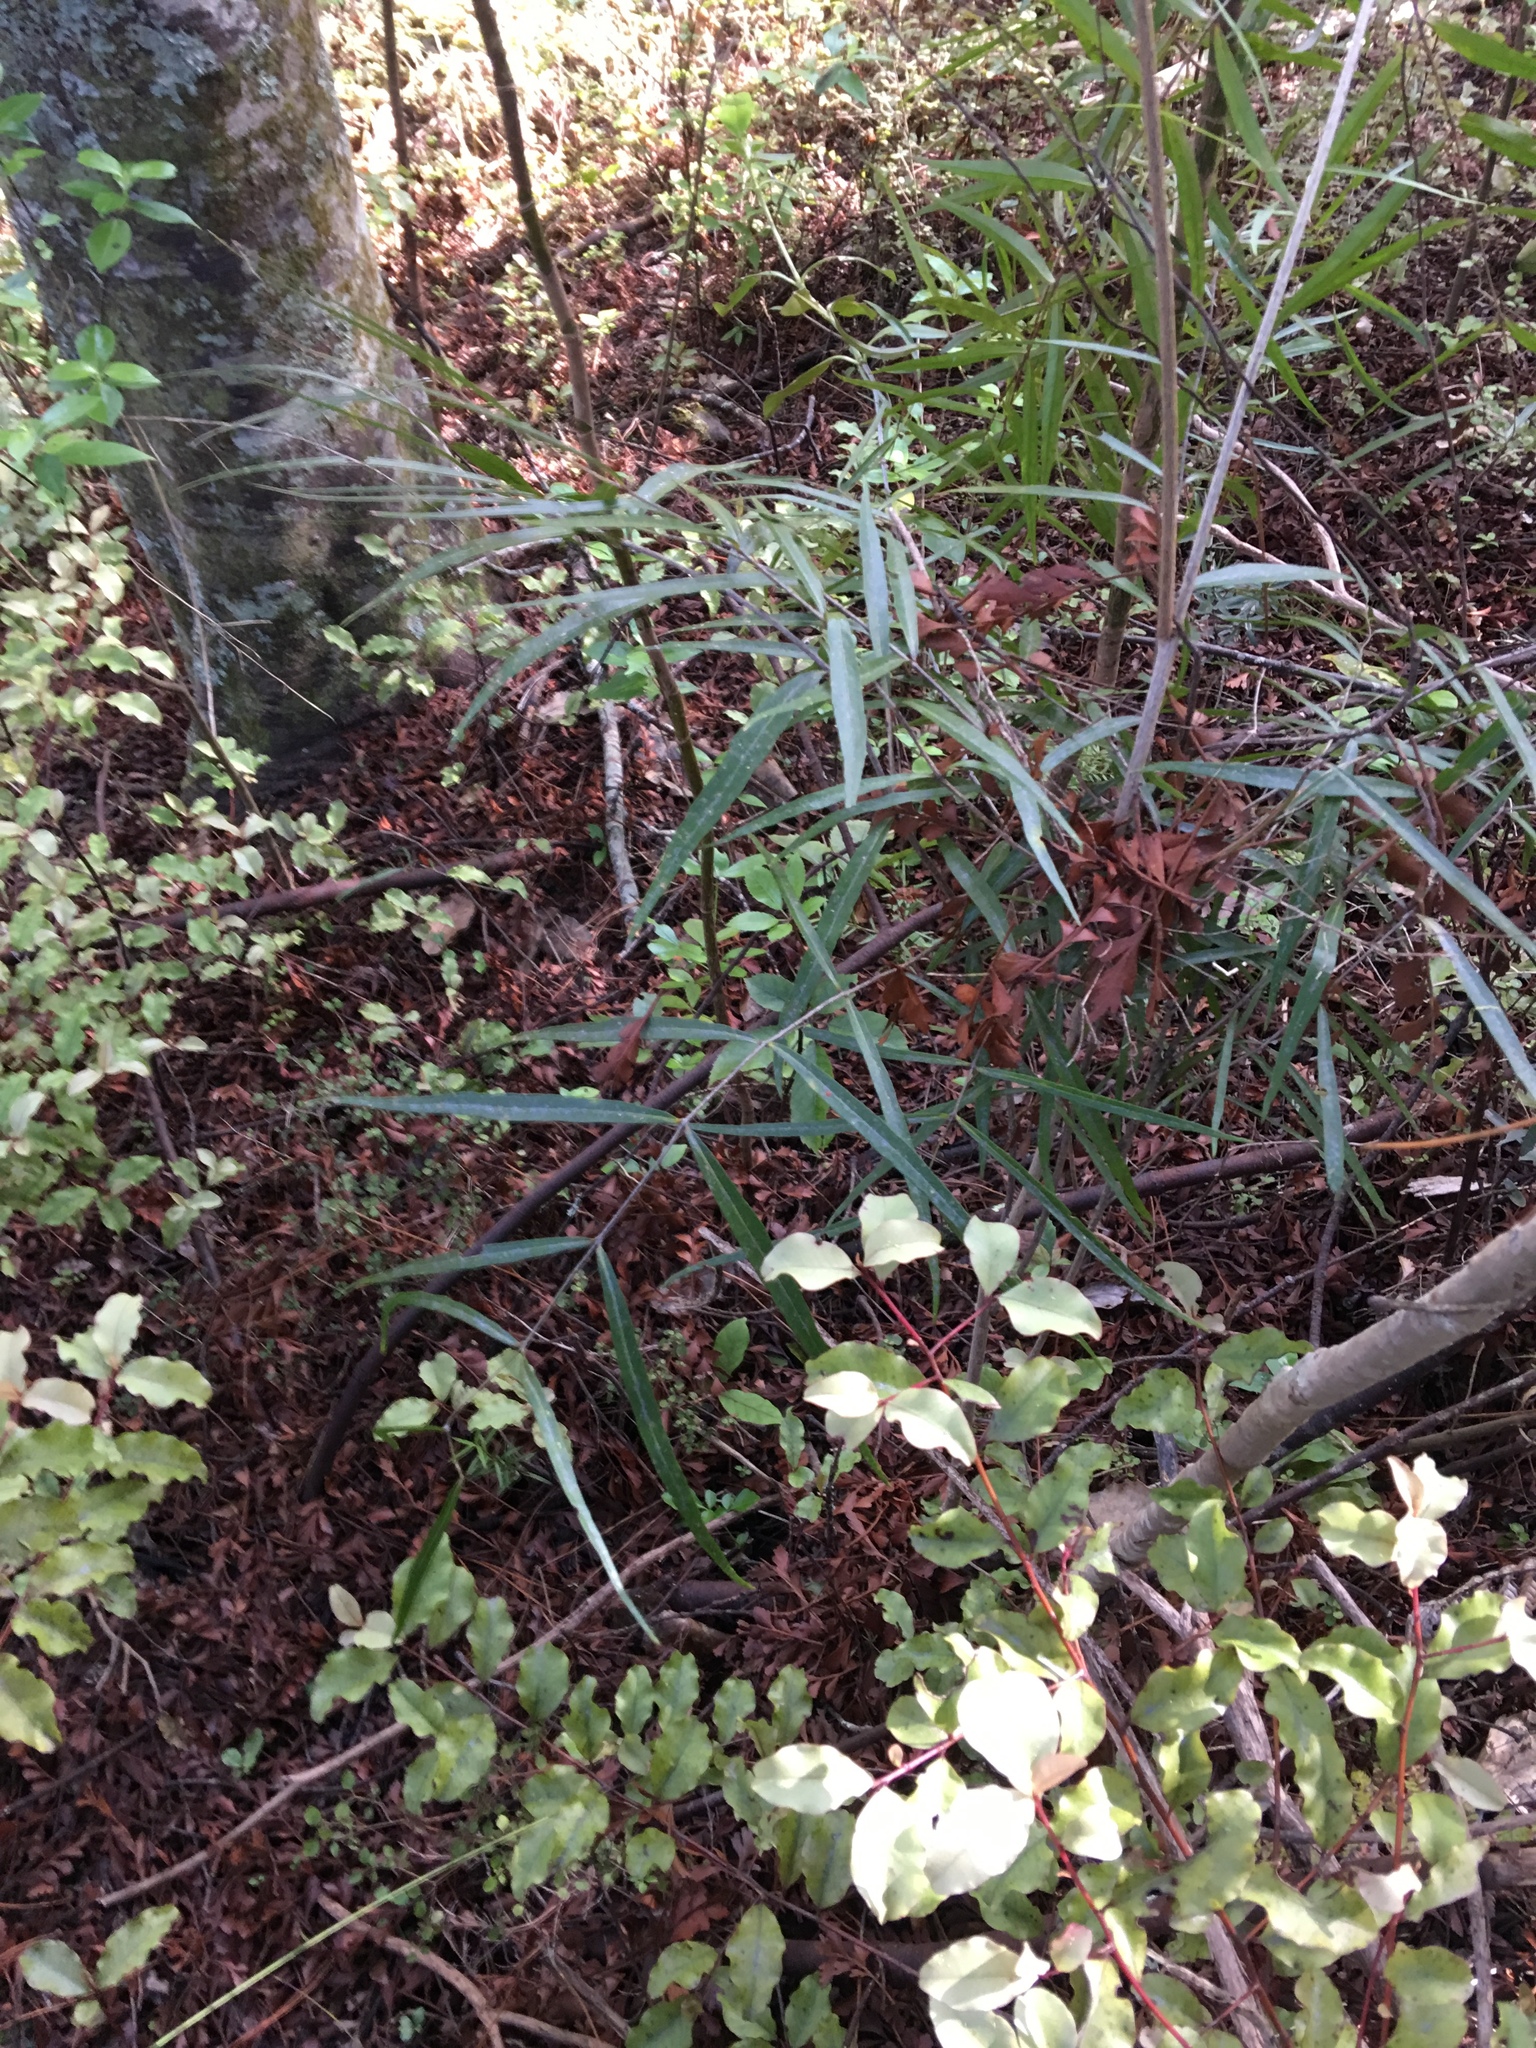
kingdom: Plantae
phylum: Tracheophyta
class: Magnoliopsida
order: Santalales
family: Nanodeaceae
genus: Mida
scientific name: Mida salicifolia
